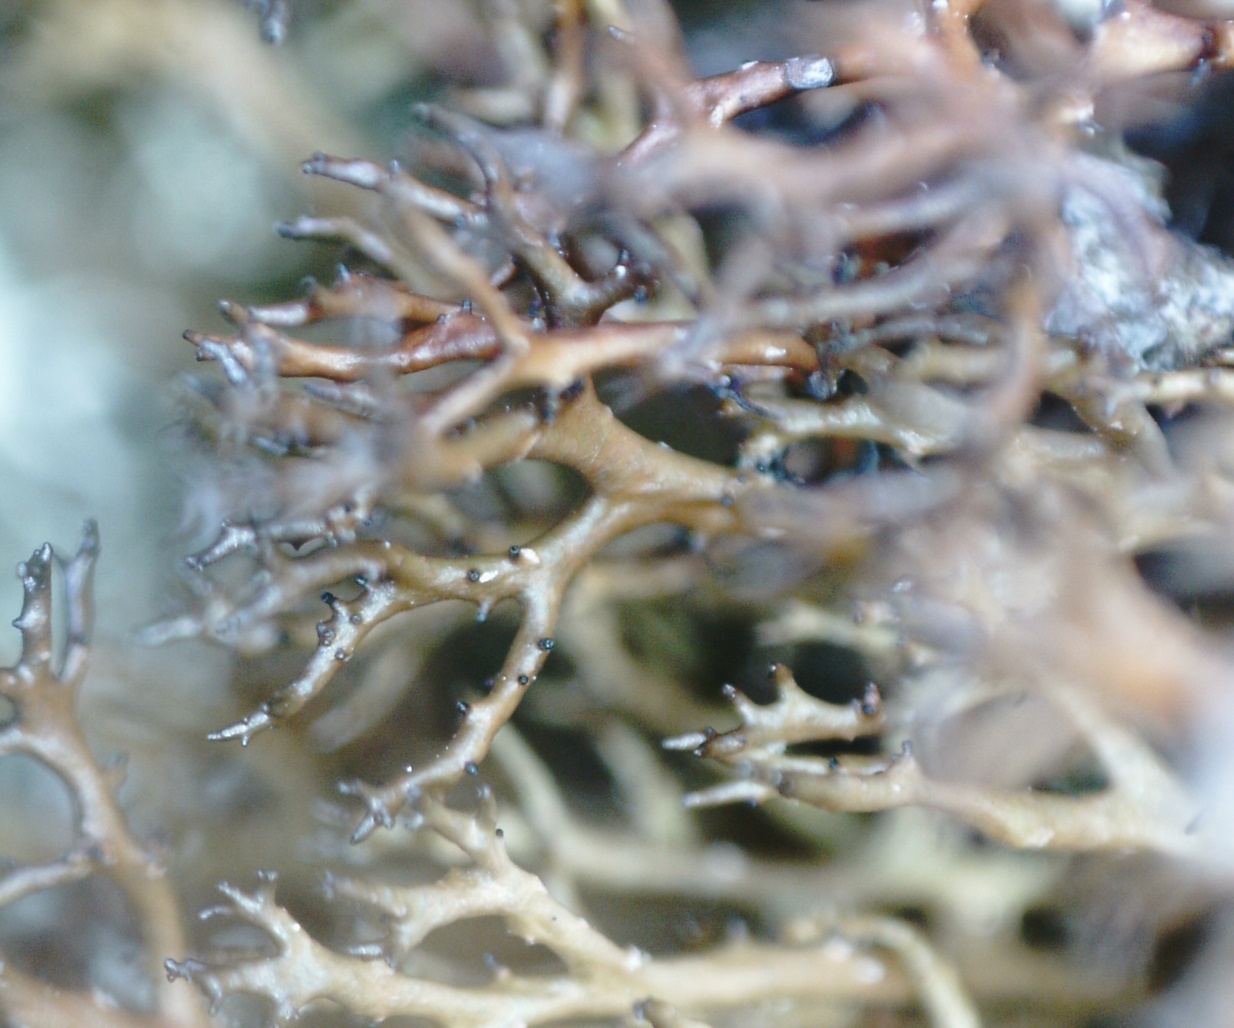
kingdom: Fungi
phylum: Ascomycota
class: Lecanoromycetes
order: Lecanorales
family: Parmeliaceae
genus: Cetraria
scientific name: Cetraria muricata
